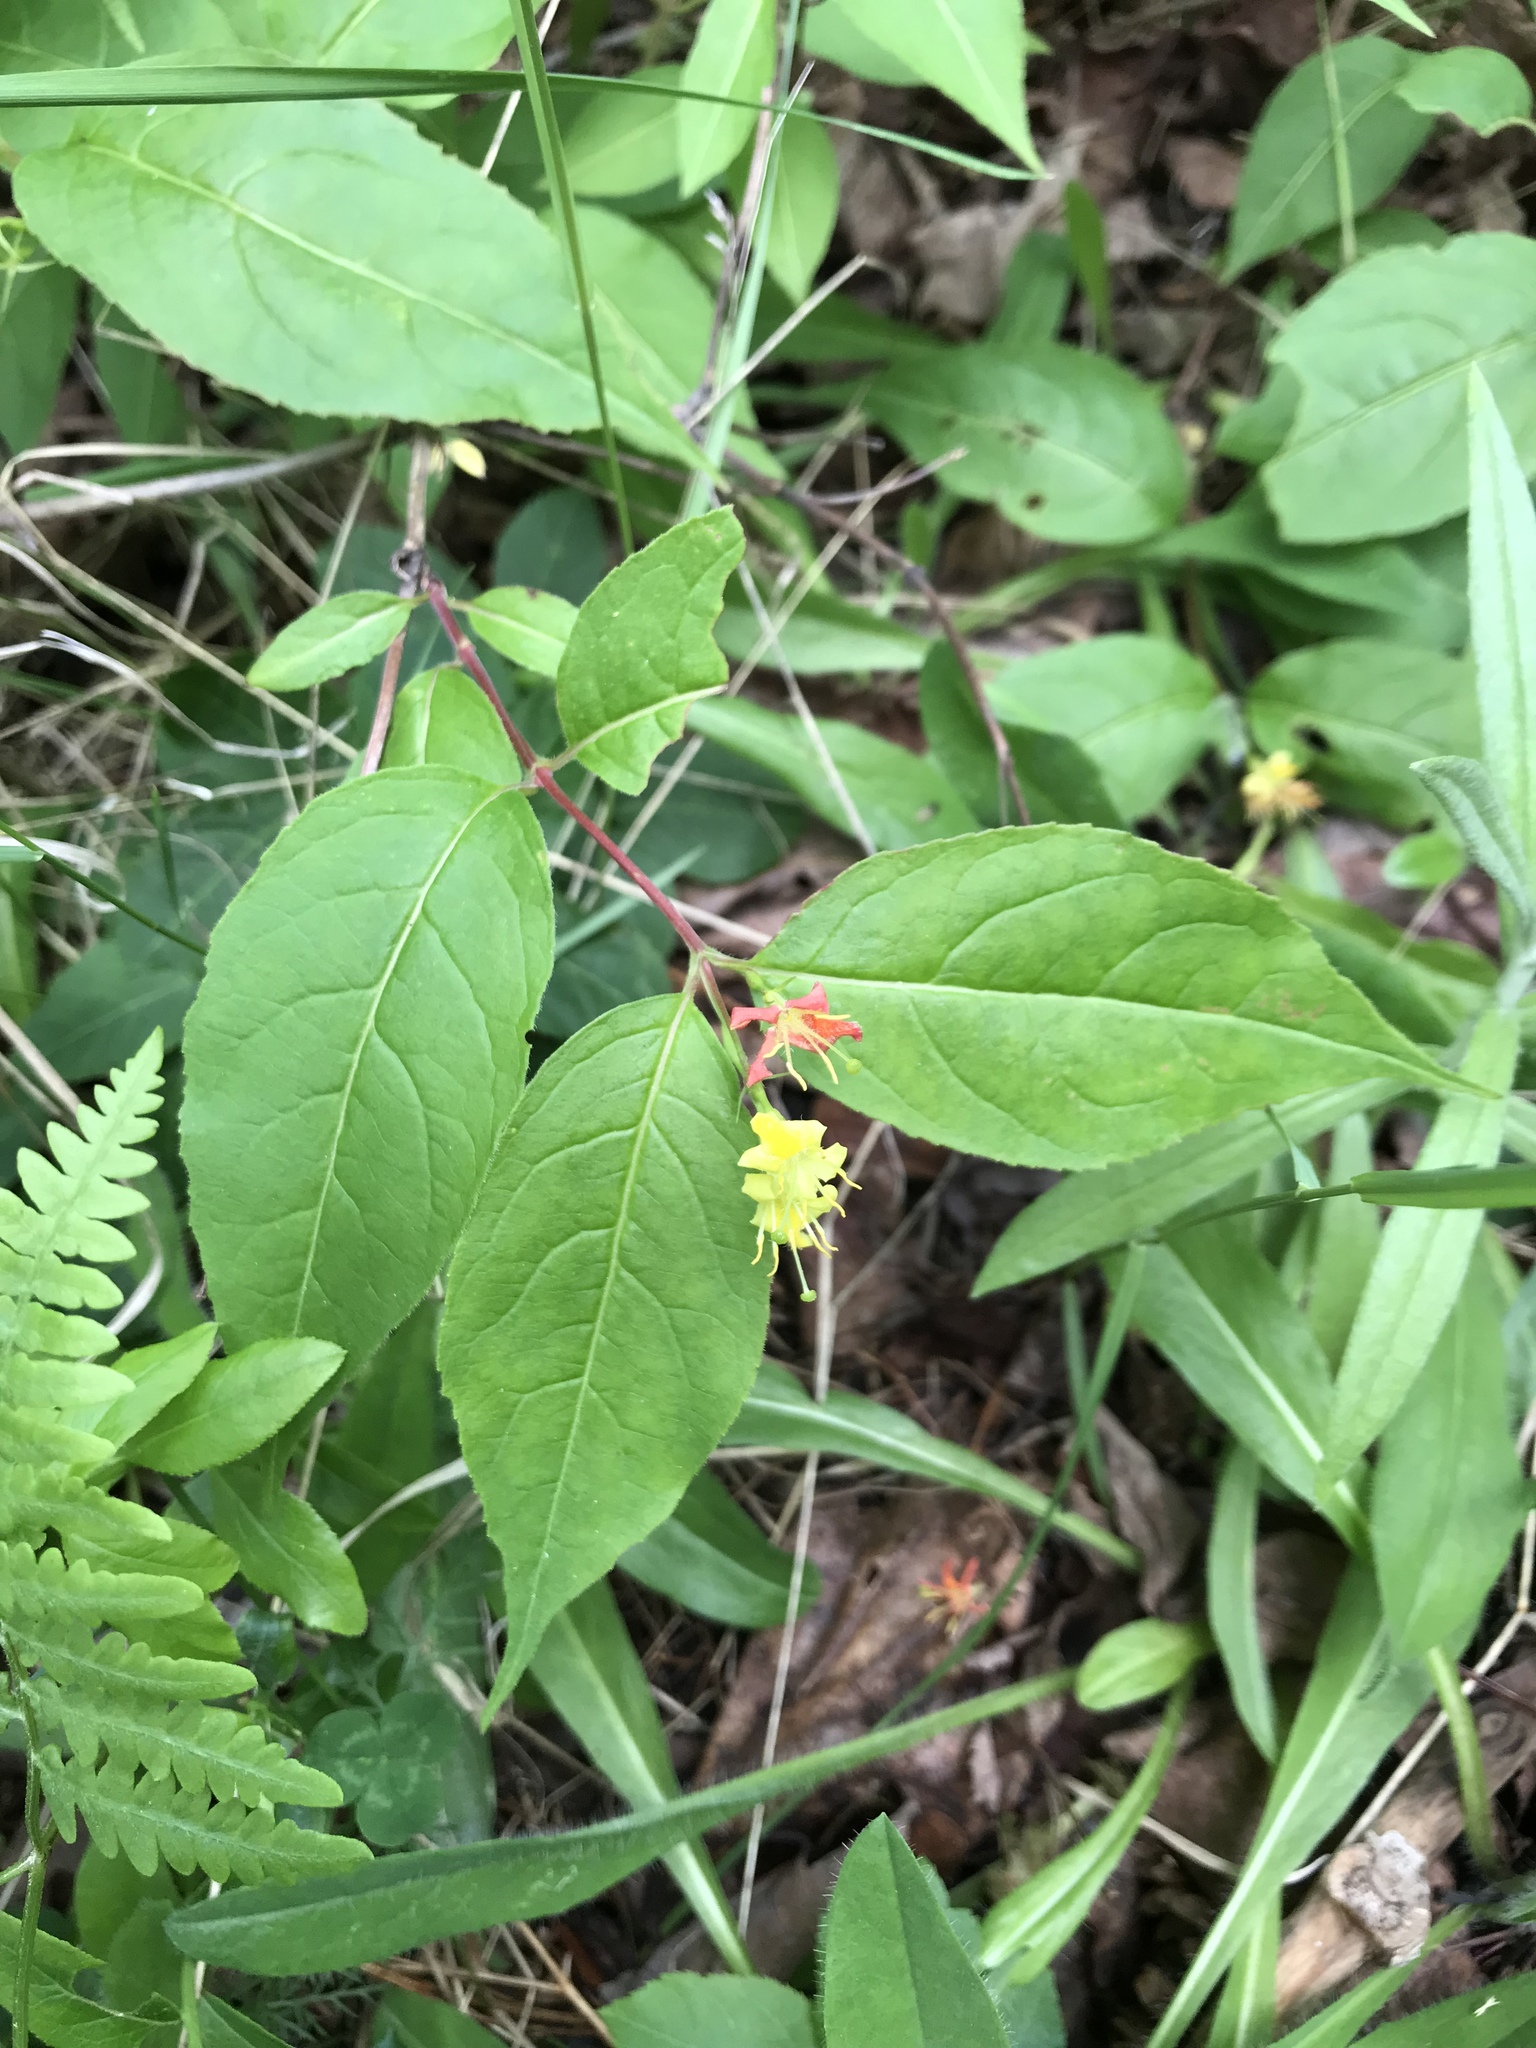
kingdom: Plantae
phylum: Tracheophyta
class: Magnoliopsida
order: Dipsacales
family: Caprifoliaceae
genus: Diervilla
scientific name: Diervilla lonicera
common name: Bush-honeysuckle
